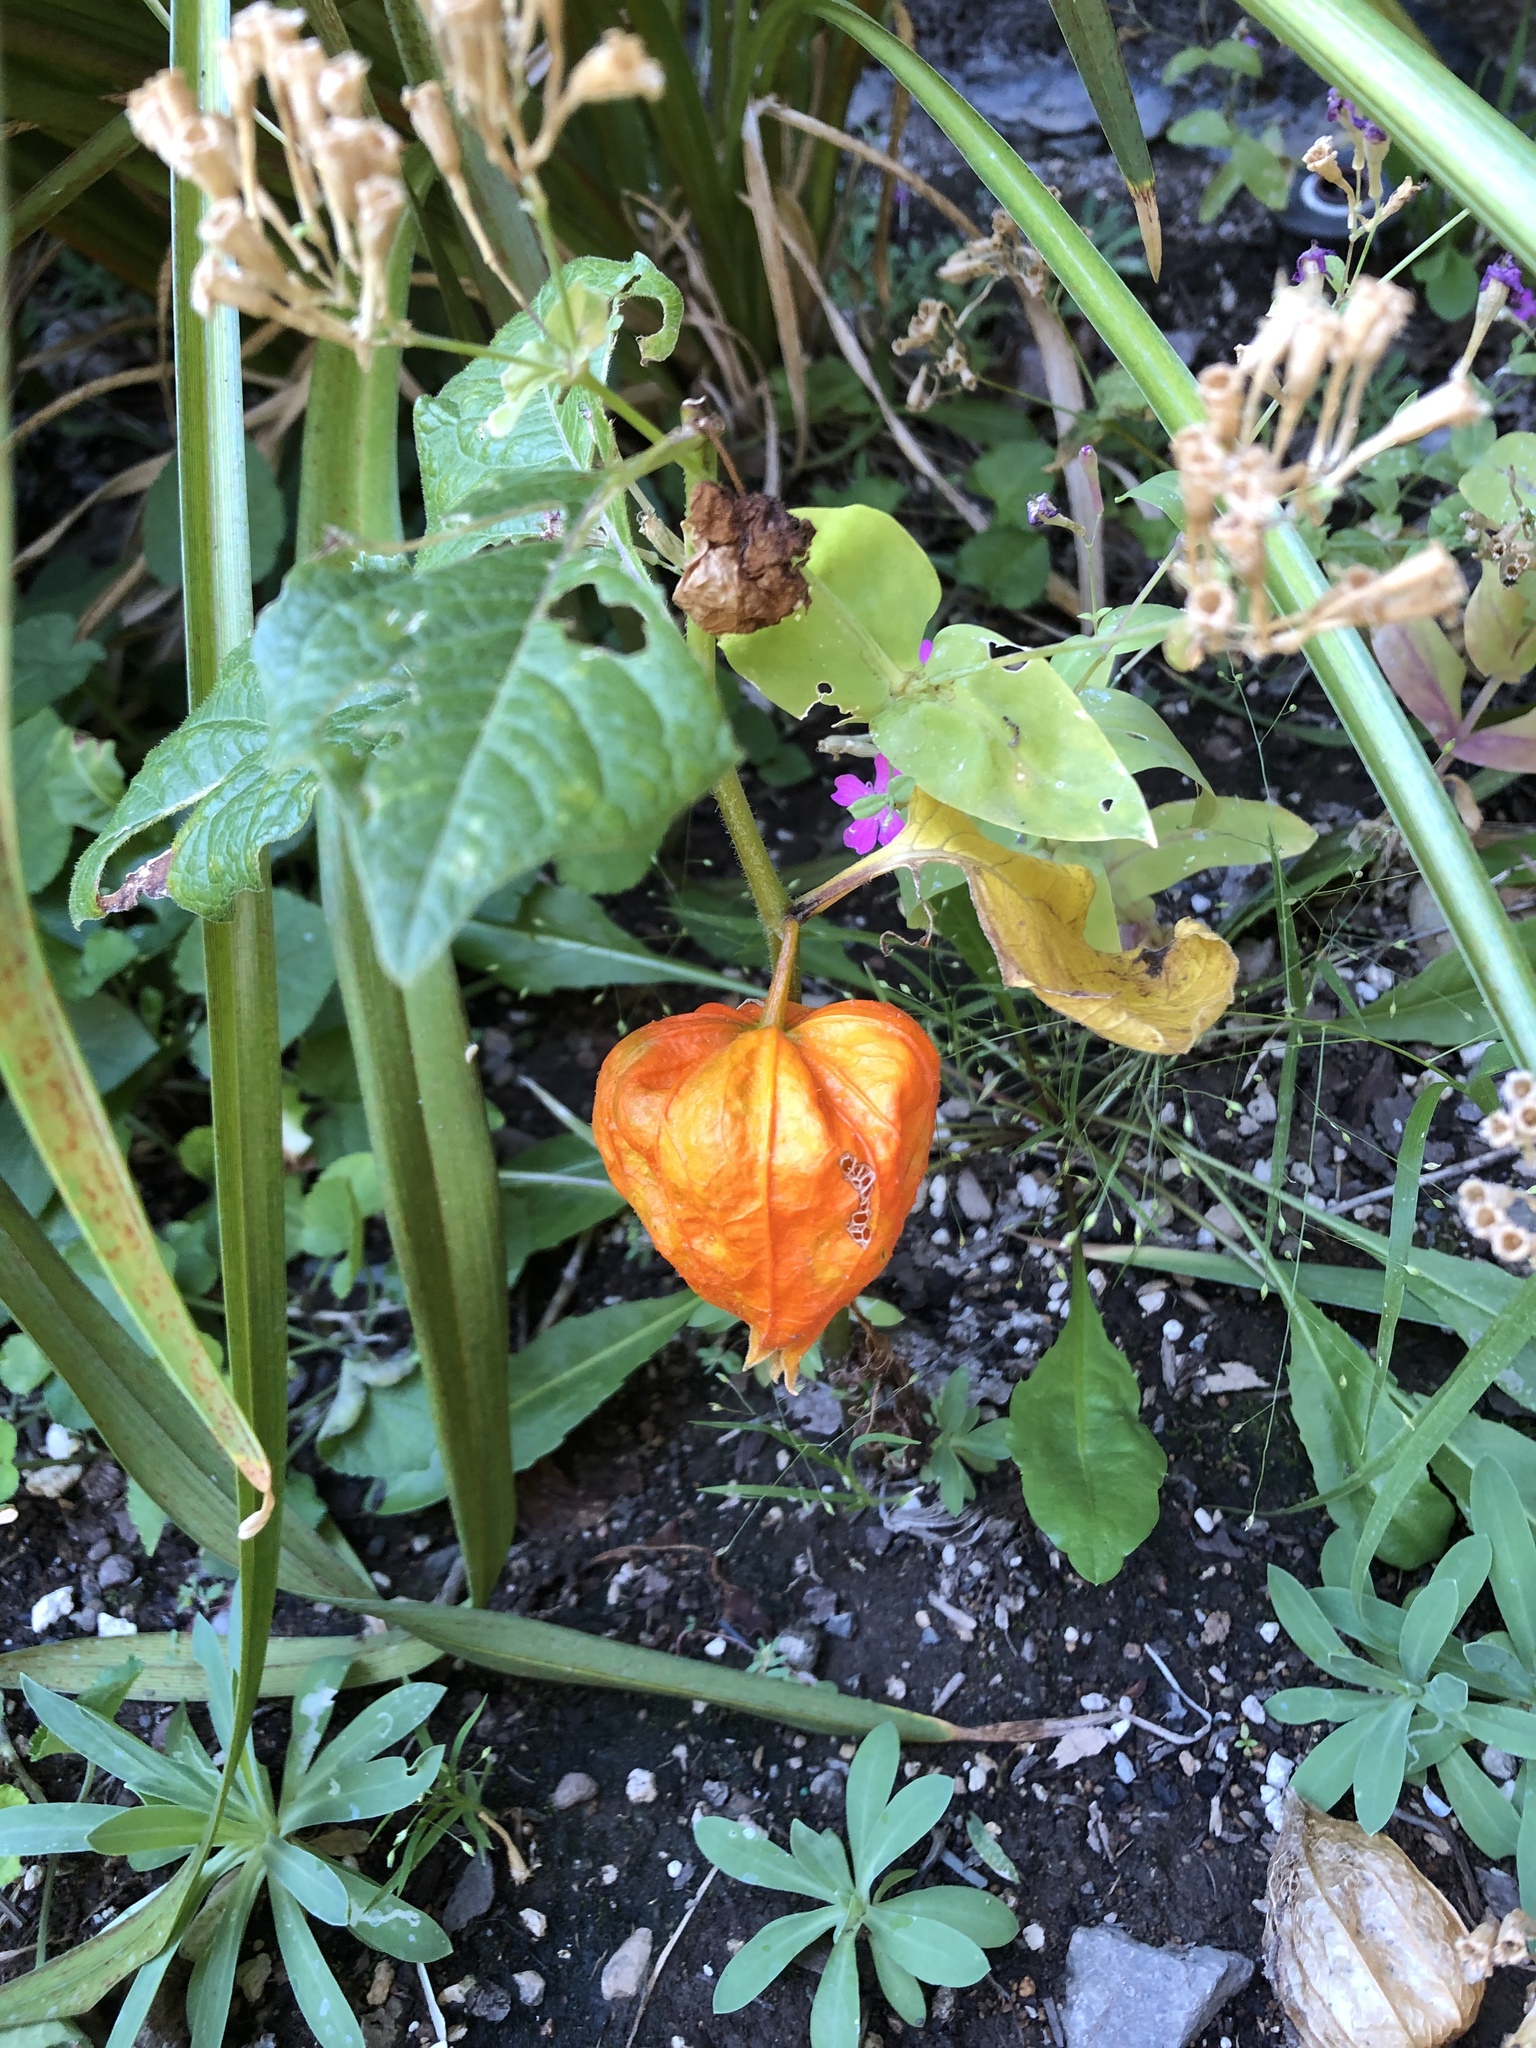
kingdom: Plantae
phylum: Tracheophyta
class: Magnoliopsida
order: Solanales
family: Solanaceae
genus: Alkekengi
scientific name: Alkekengi officinarum
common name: Japanese-lantern
